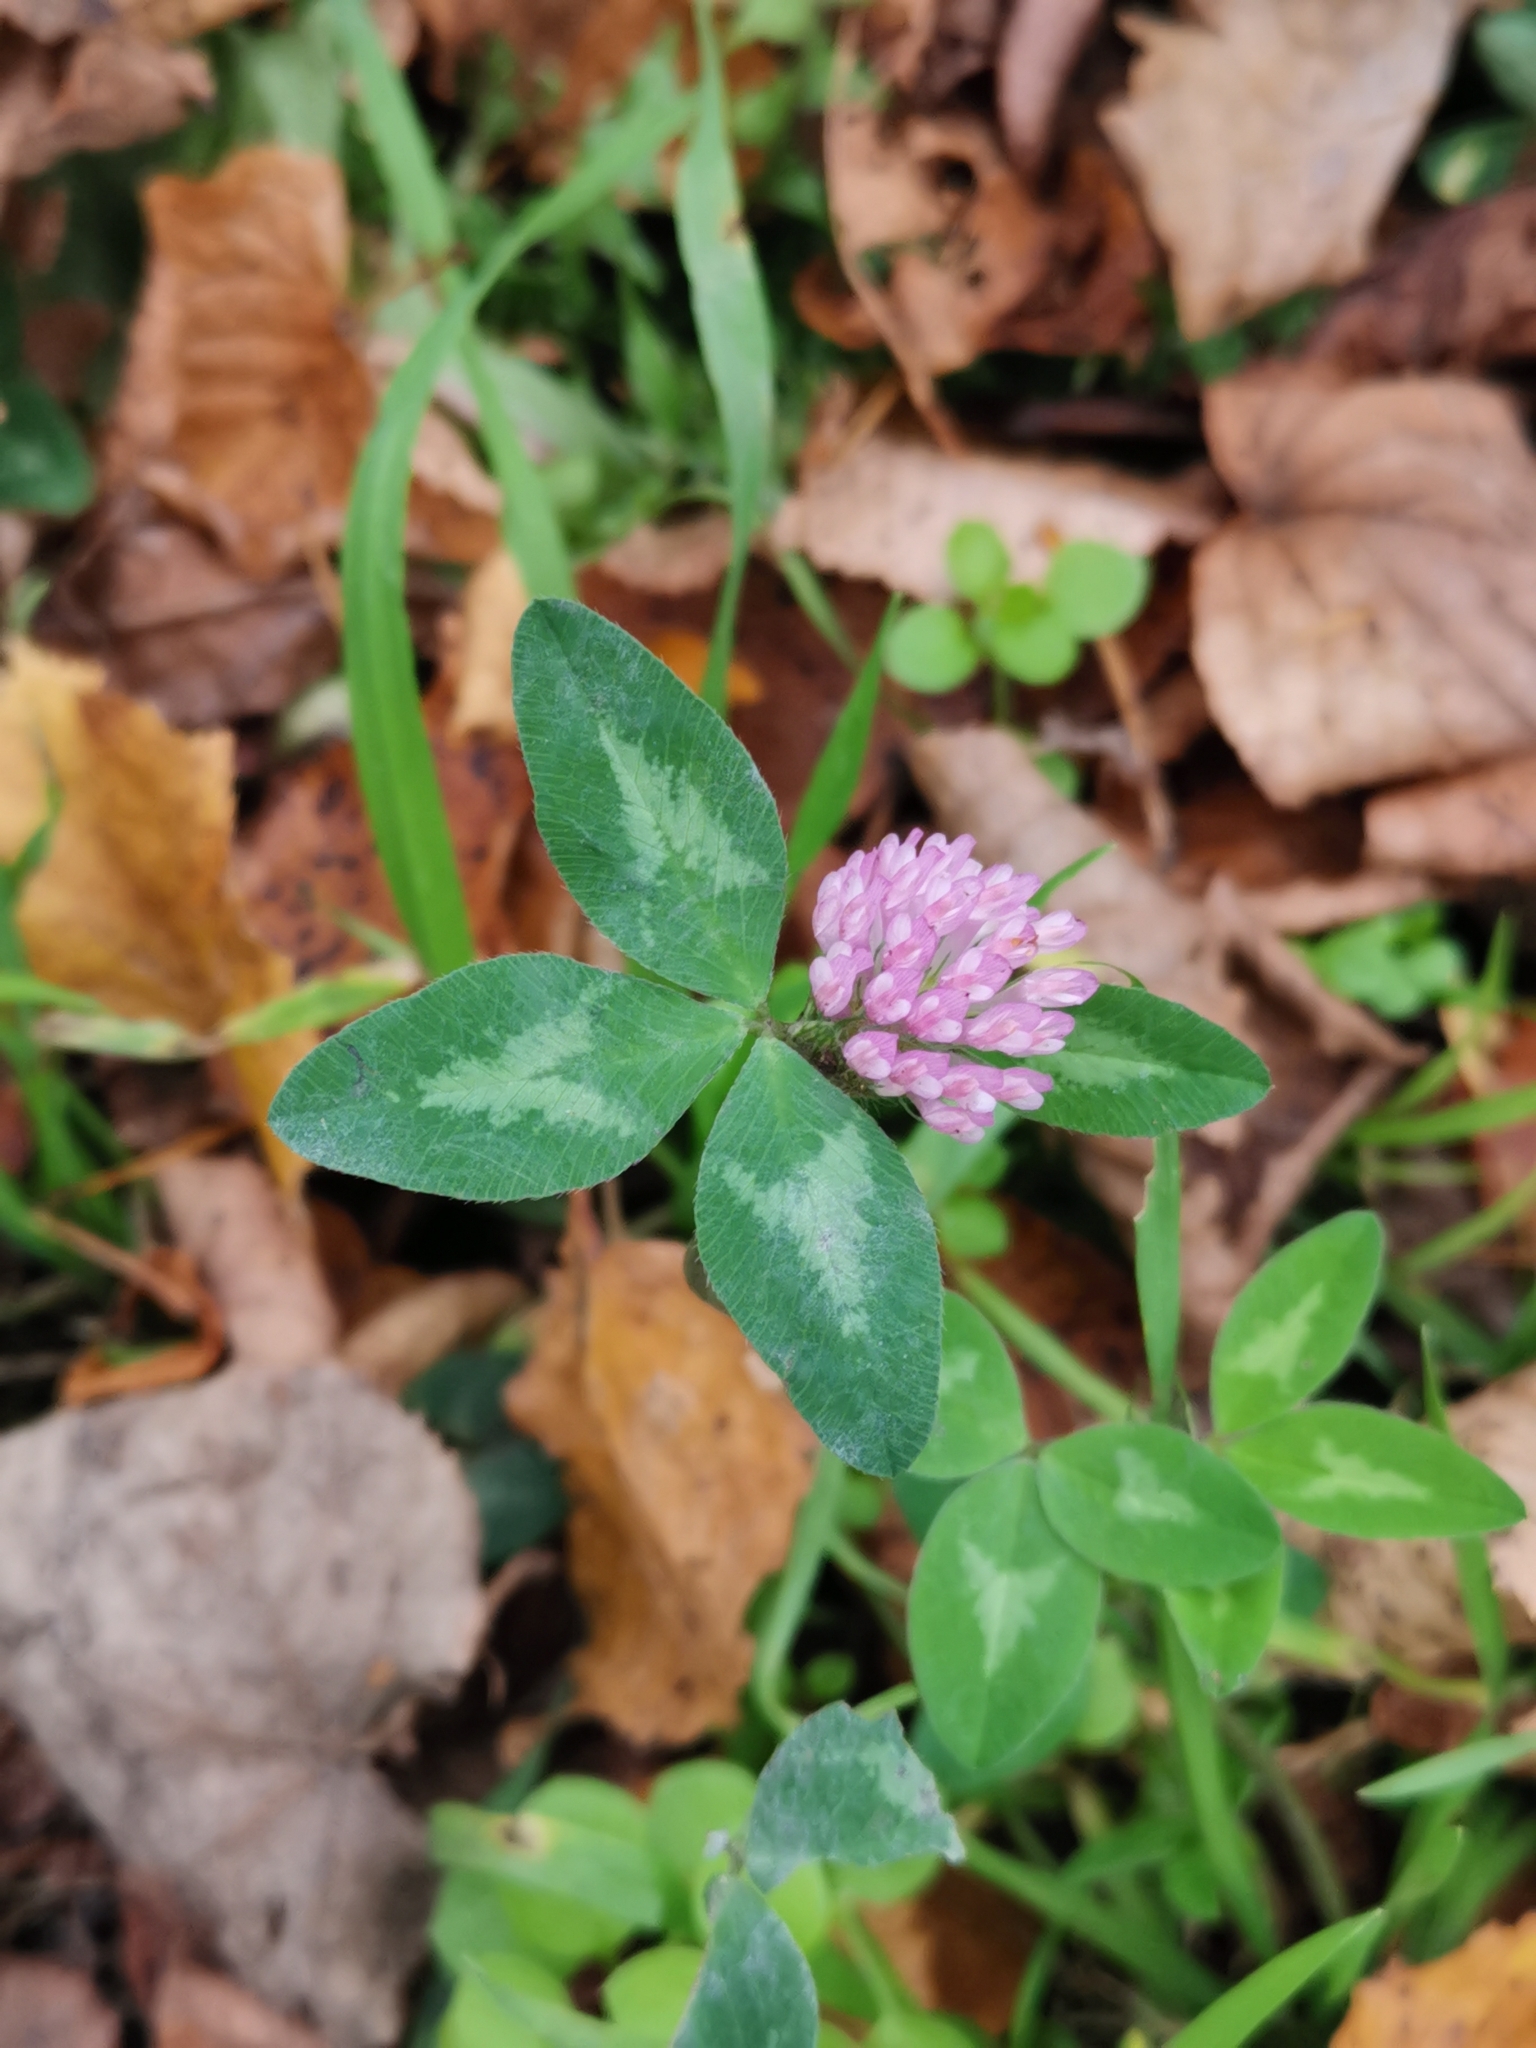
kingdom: Plantae
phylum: Tracheophyta
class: Magnoliopsida
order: Fabales
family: Fabaceae
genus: Trifolium
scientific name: Trifolium pratense
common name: Red clover
